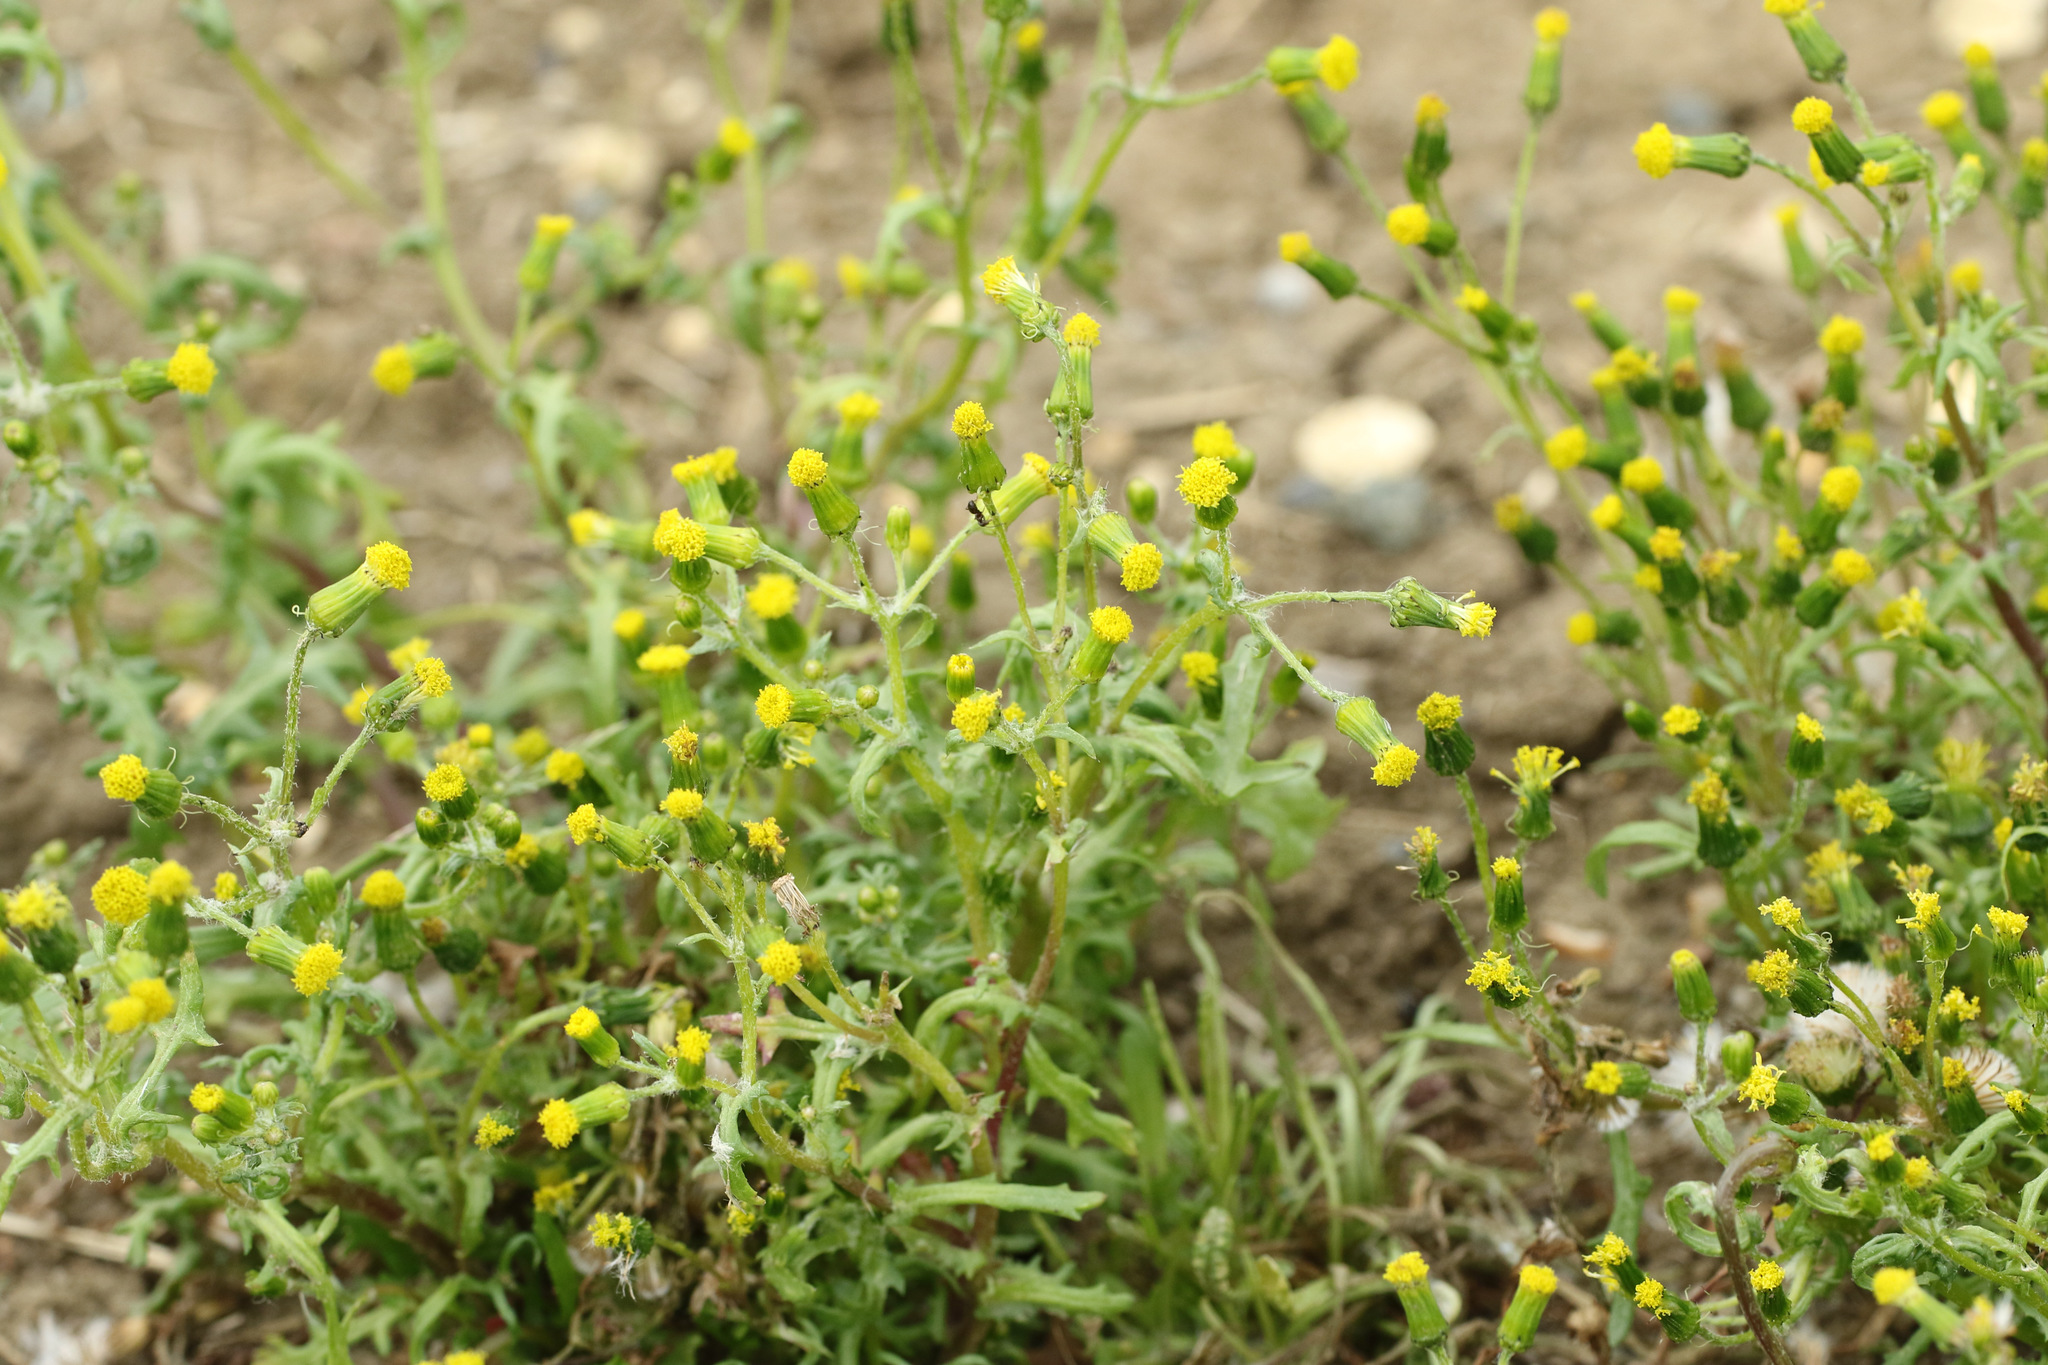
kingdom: Plantae
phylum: Tracheophyta
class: Magnoliopsida
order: Asterales
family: Asteraceae
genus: Senecio
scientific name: Senecio vulgaris
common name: Old-man-in-the-spring
